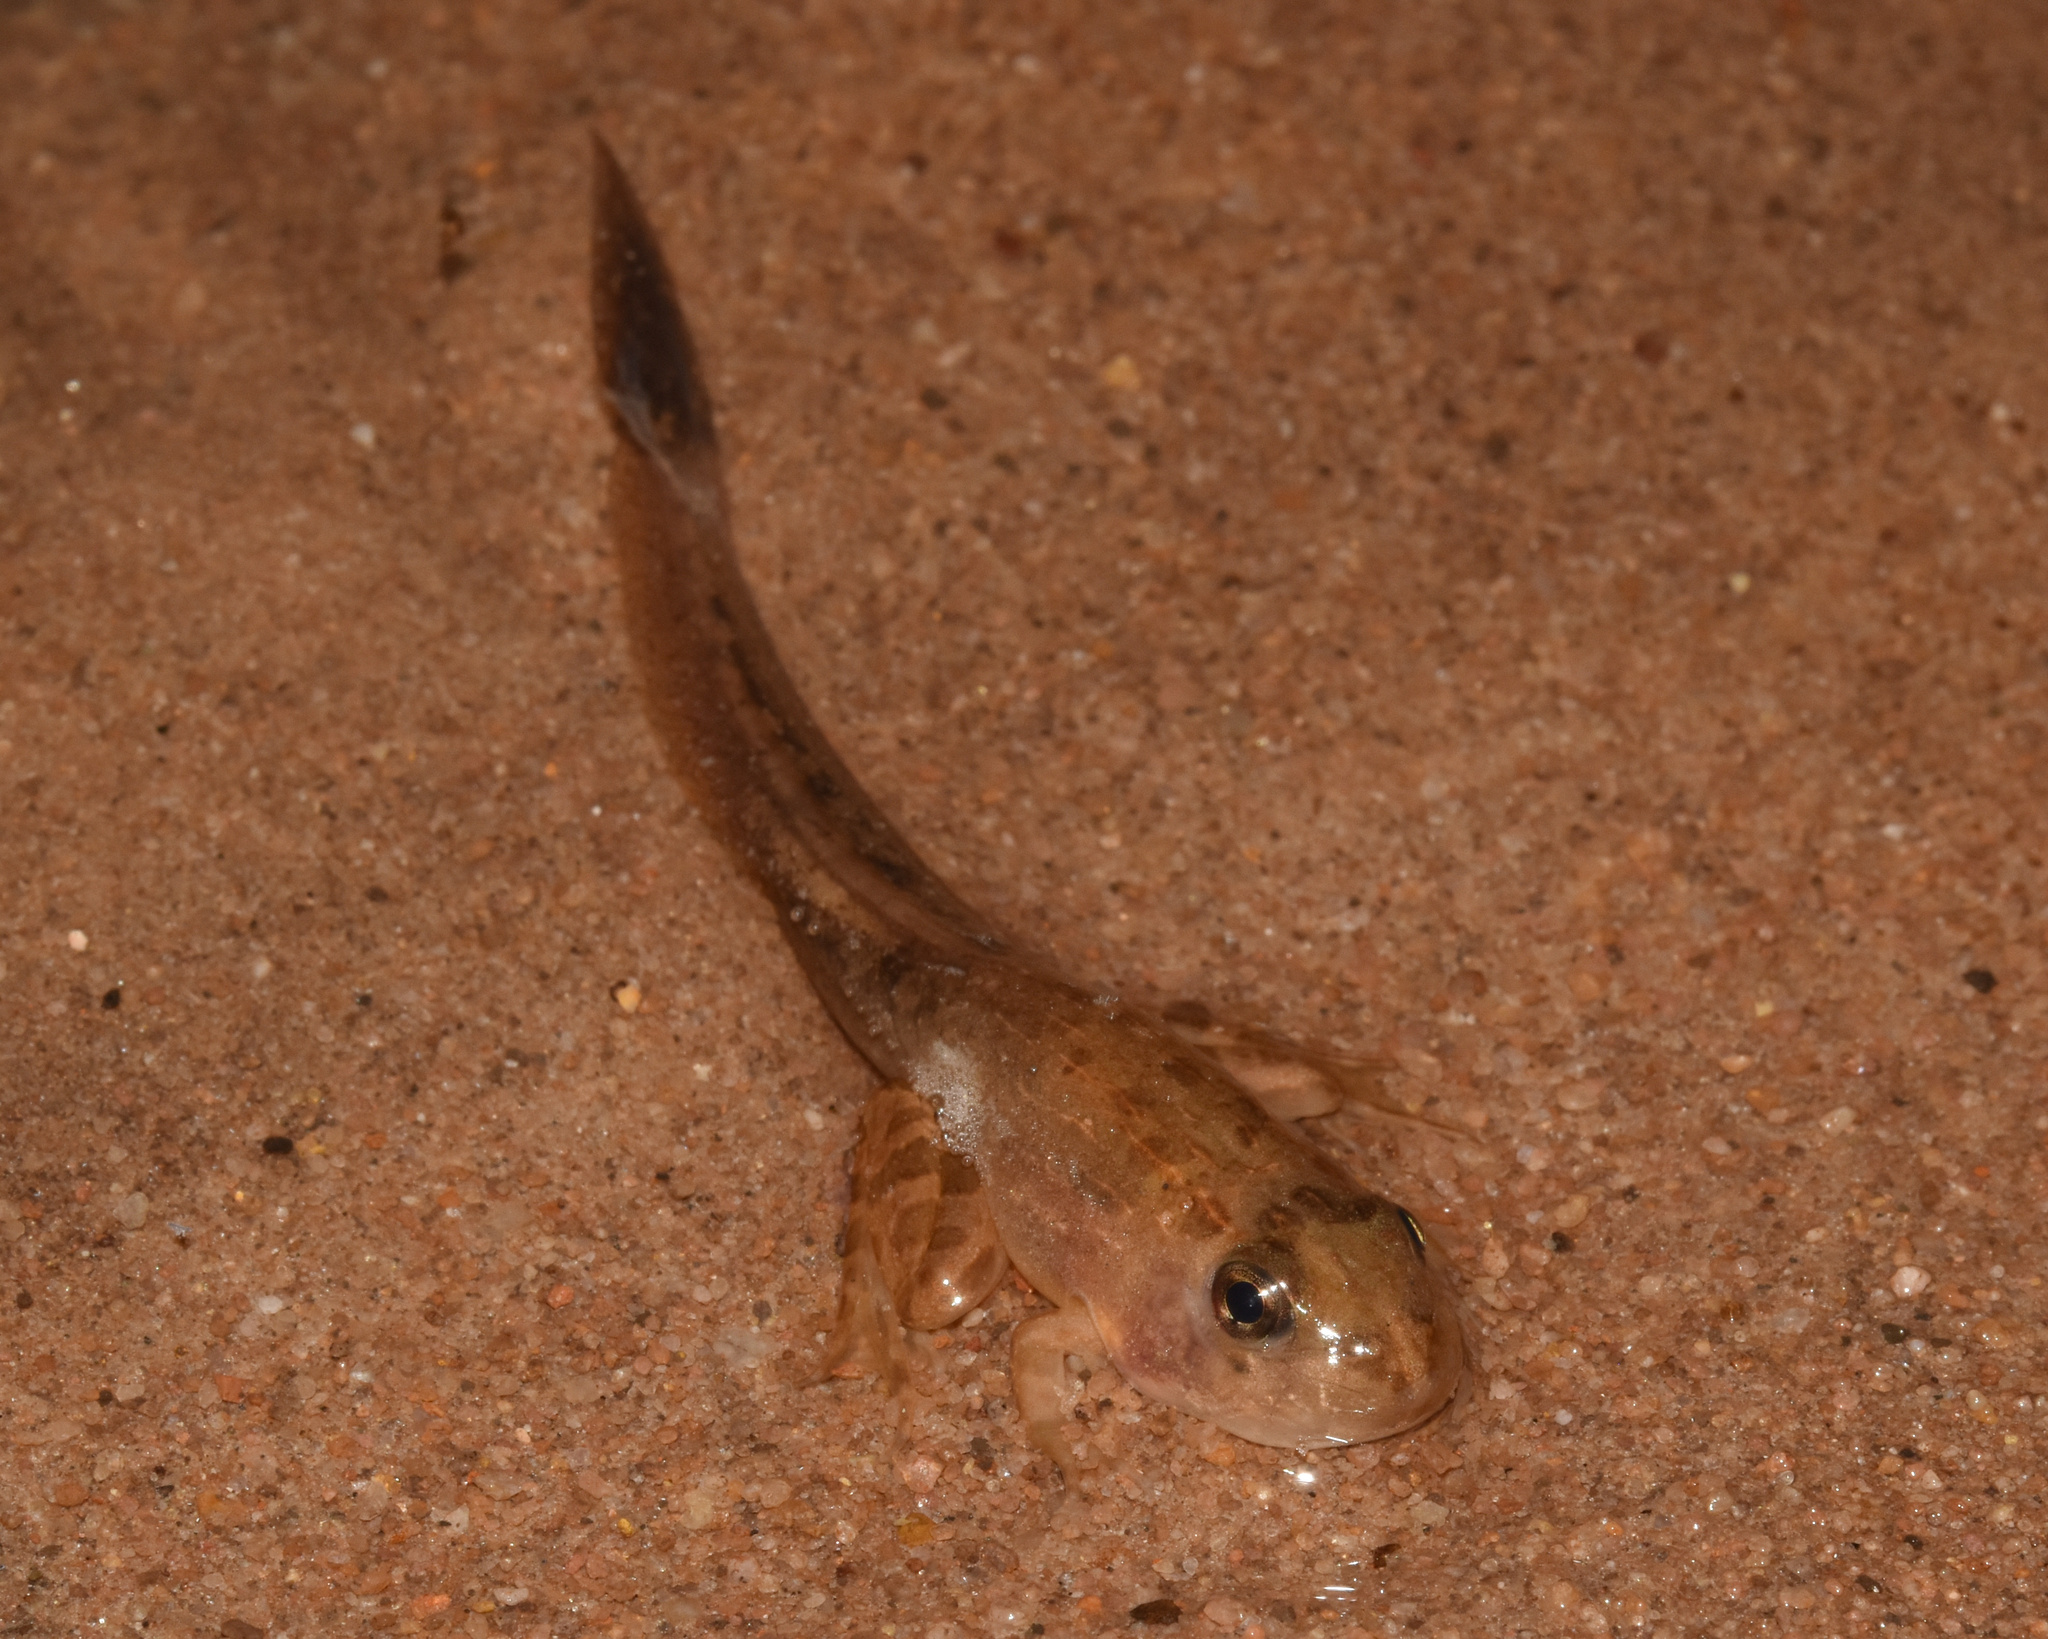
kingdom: Animalia
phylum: Chordata
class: Amphibia
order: Anura
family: Pyxicephalidae
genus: Amietia
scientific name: Amietia delalandii
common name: Delalande's river frog
